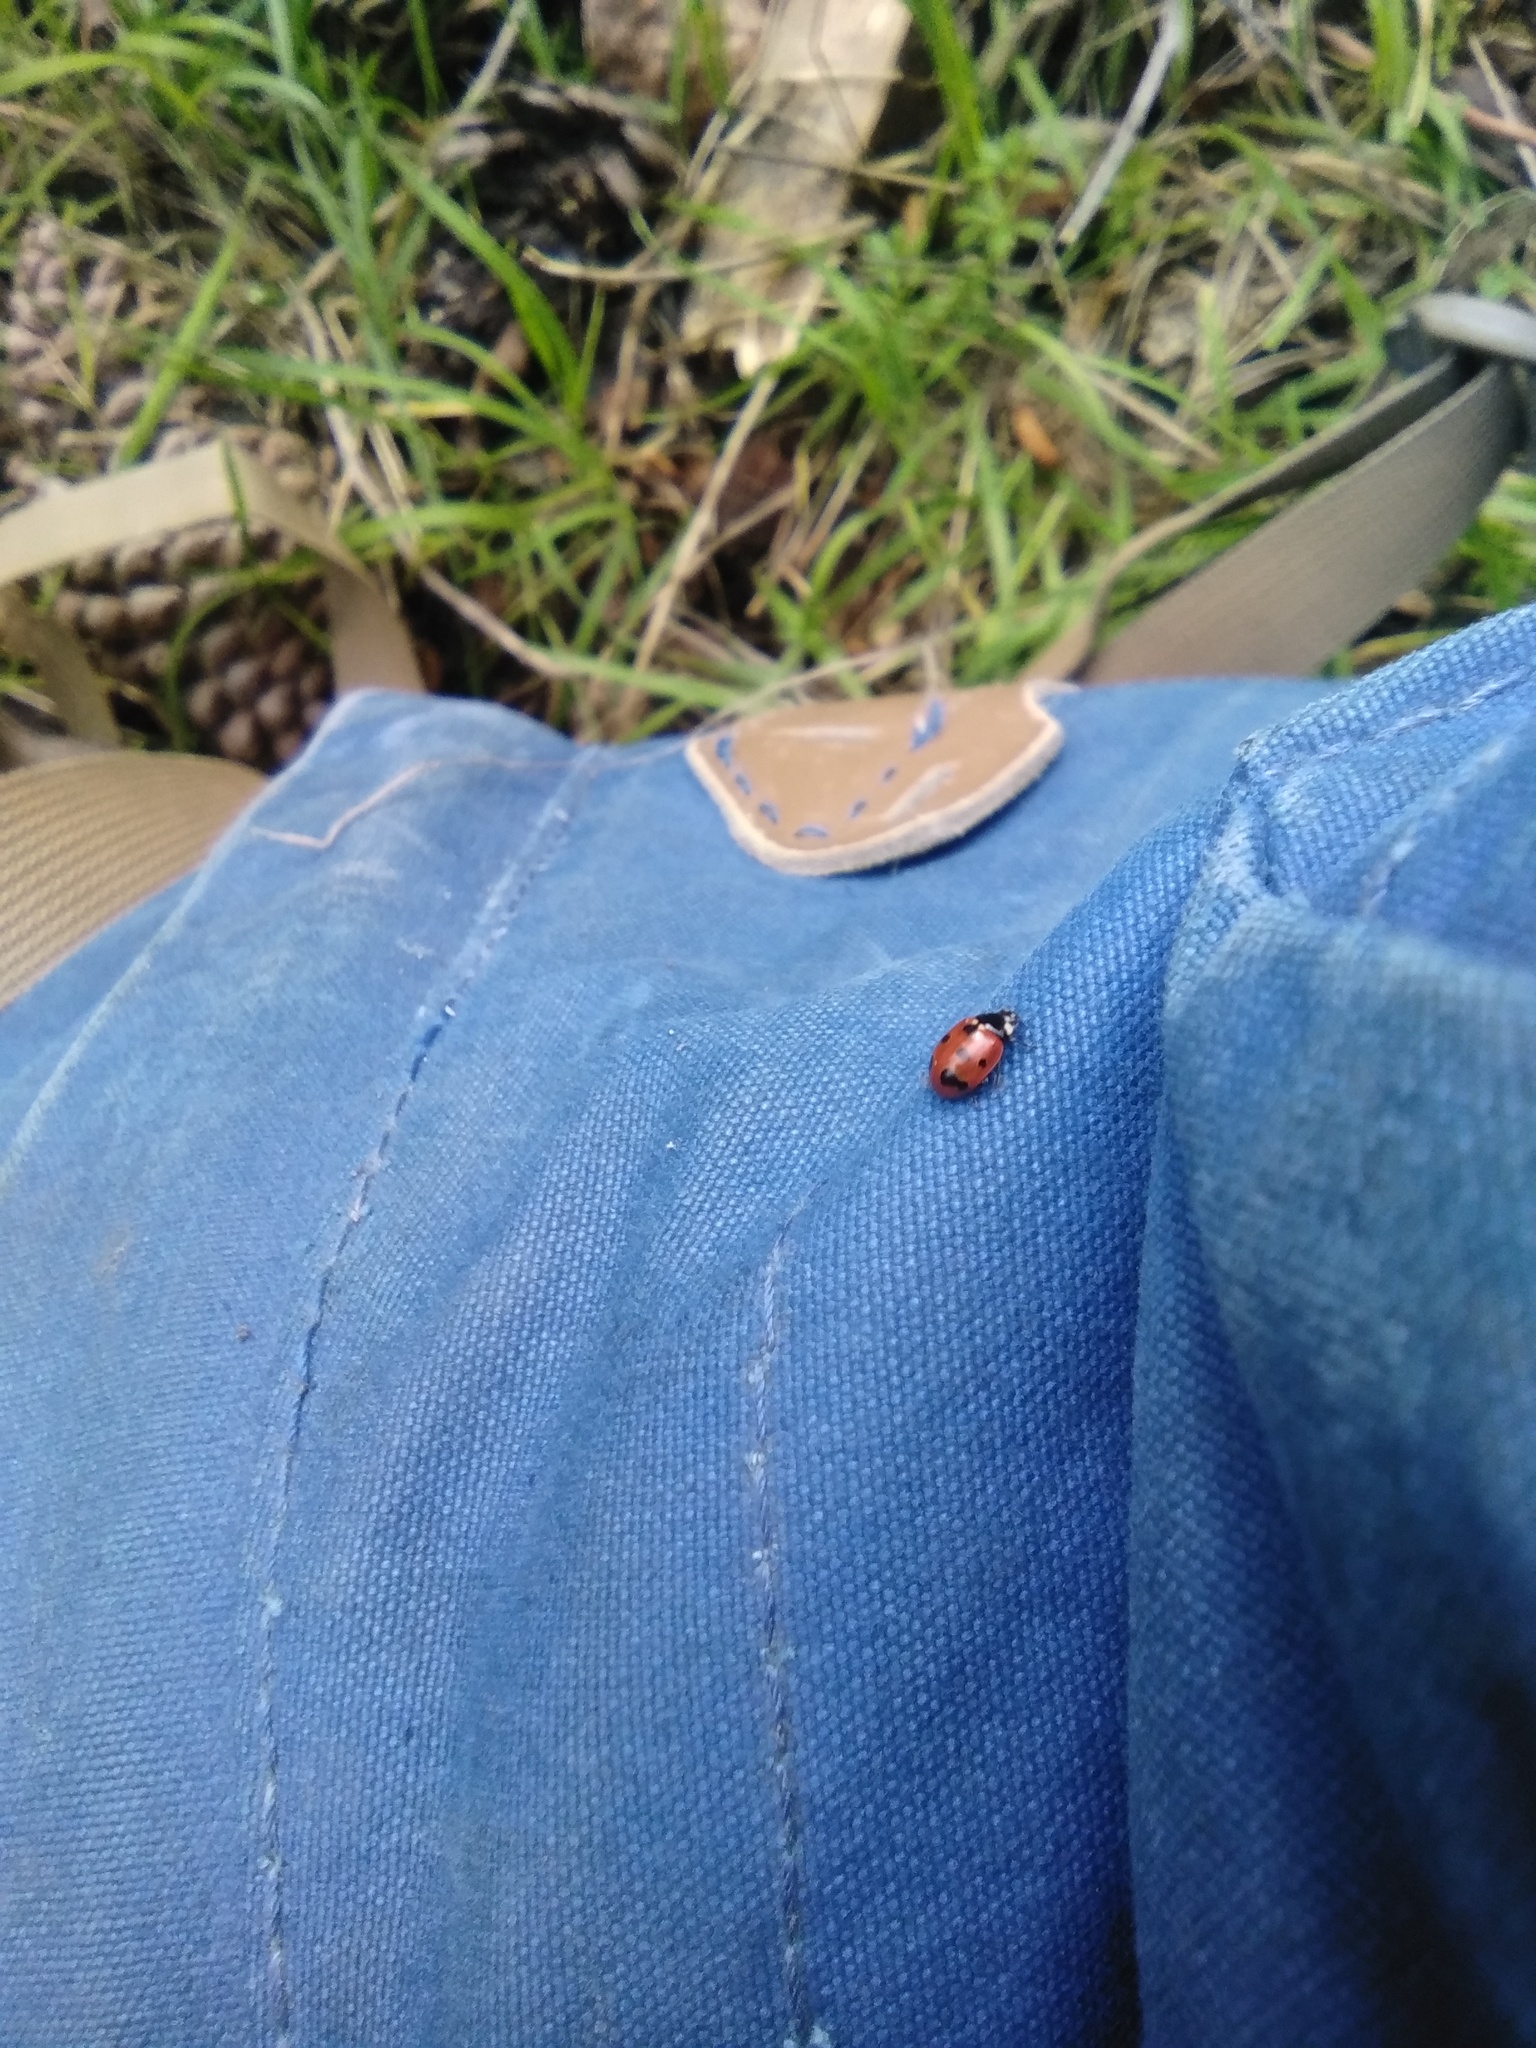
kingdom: Animalia
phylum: Arthropoda
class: Insecta
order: Coleoptera
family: Coccinellidae
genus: Coccinella
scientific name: Coccinella undecimpunctata
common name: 11-spot ladybird
